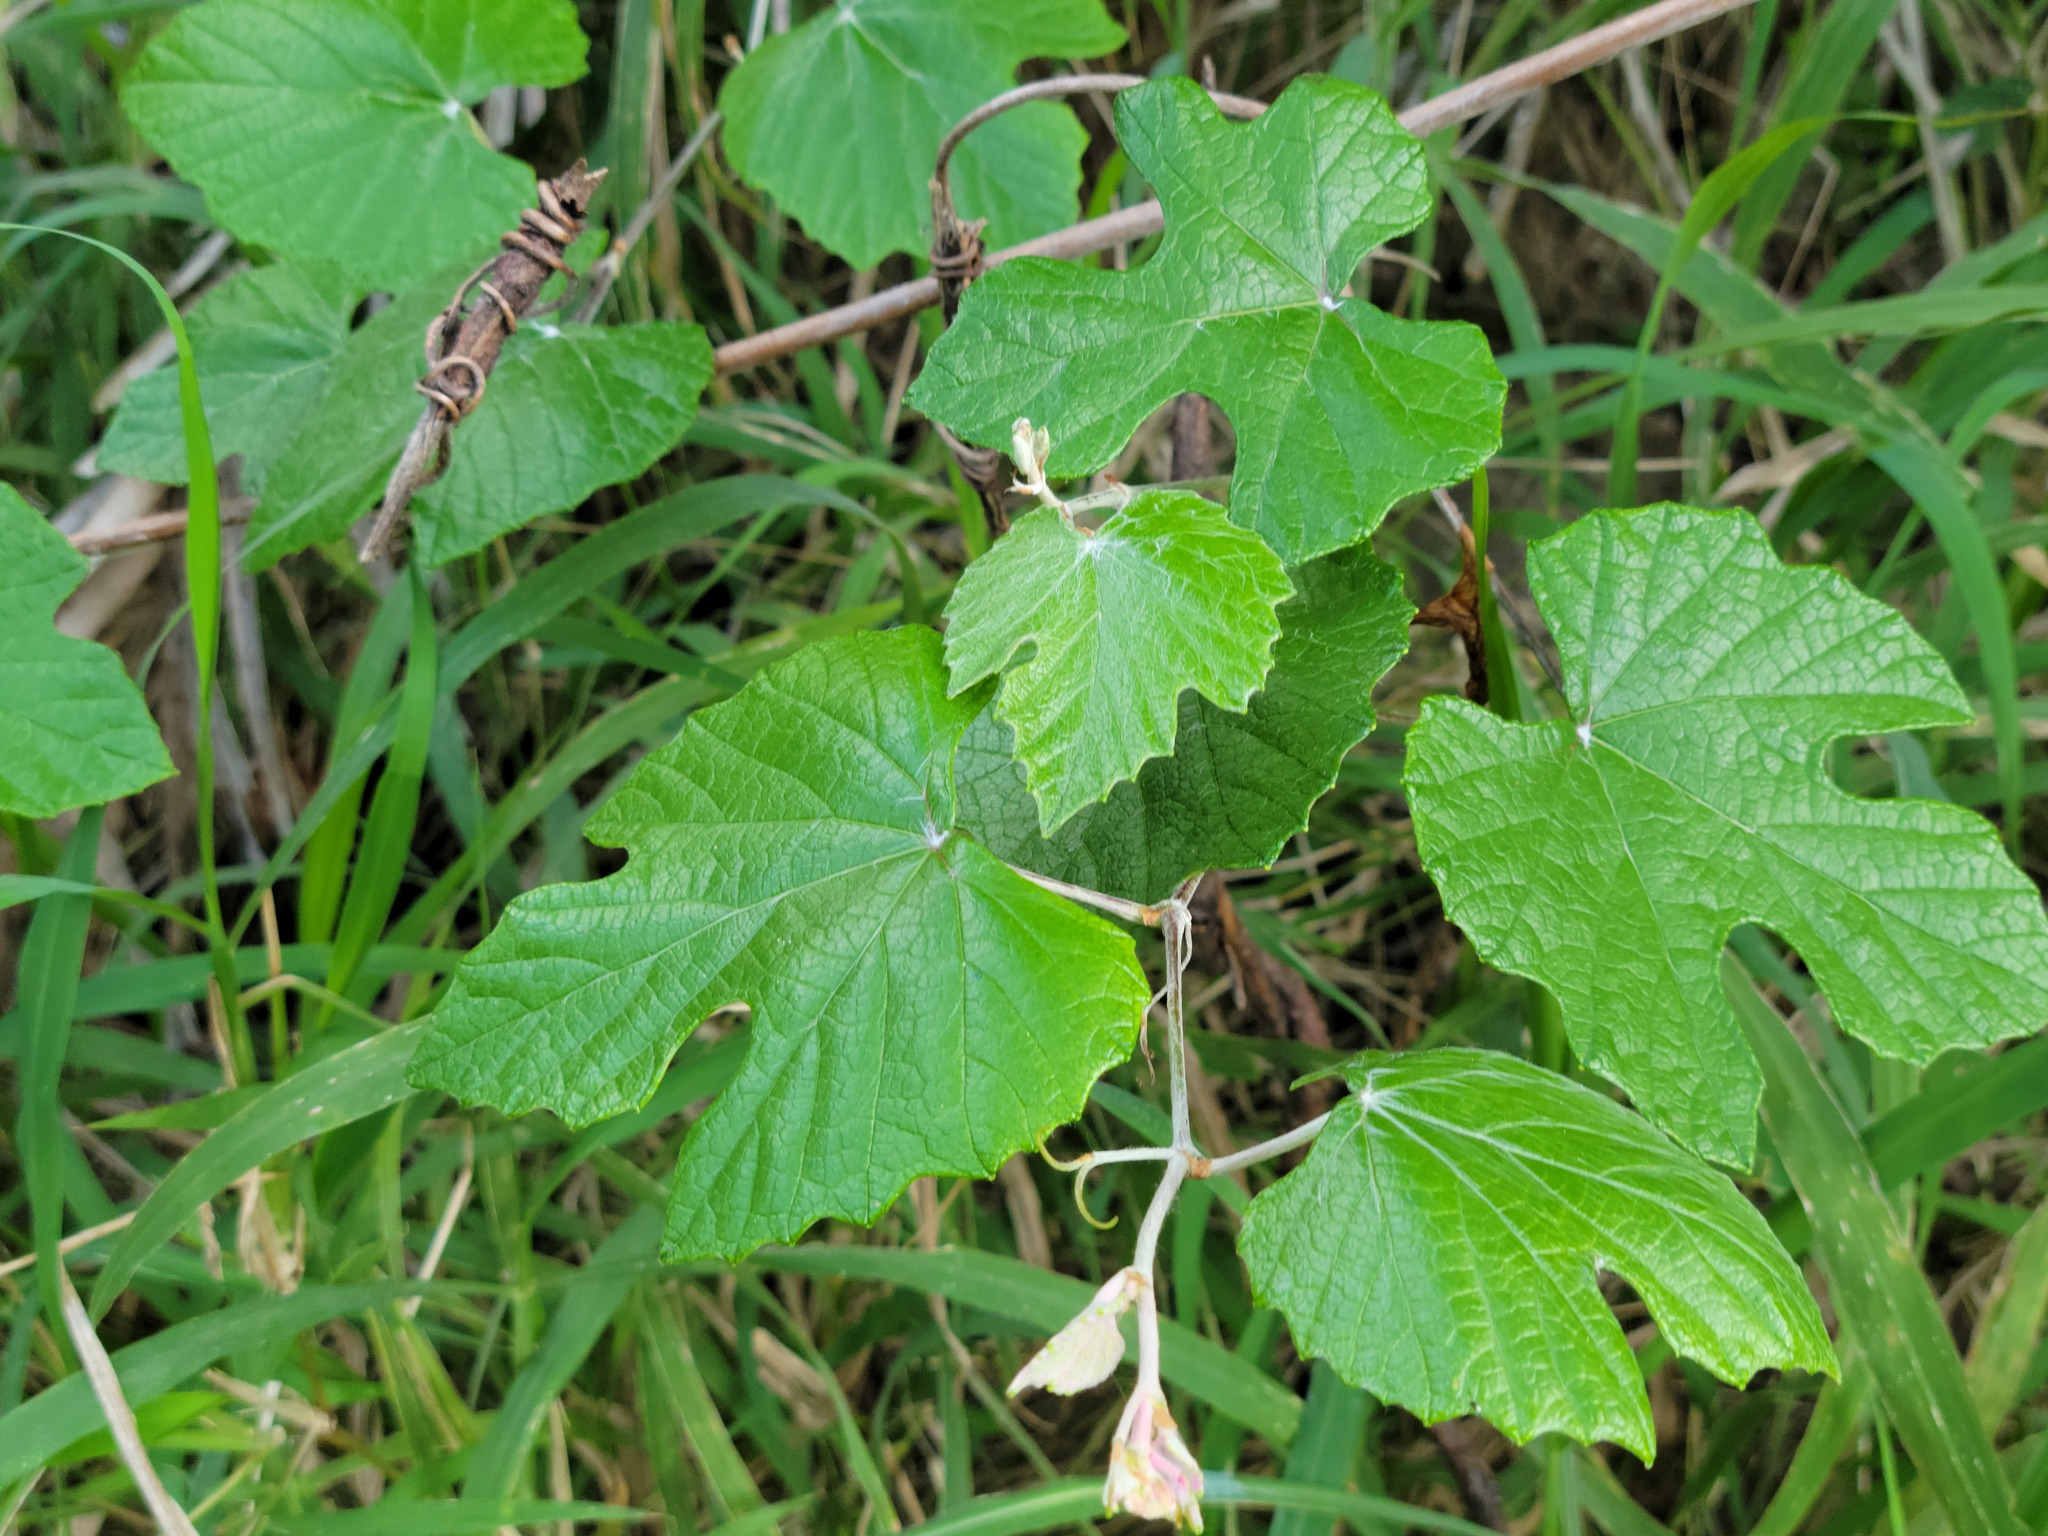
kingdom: Plantae
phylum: Tracheophyta
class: Magnoliopsida
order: Vitales
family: Vitaceae
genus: Vitis
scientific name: Vitis mustangensis
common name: Mustang grape
